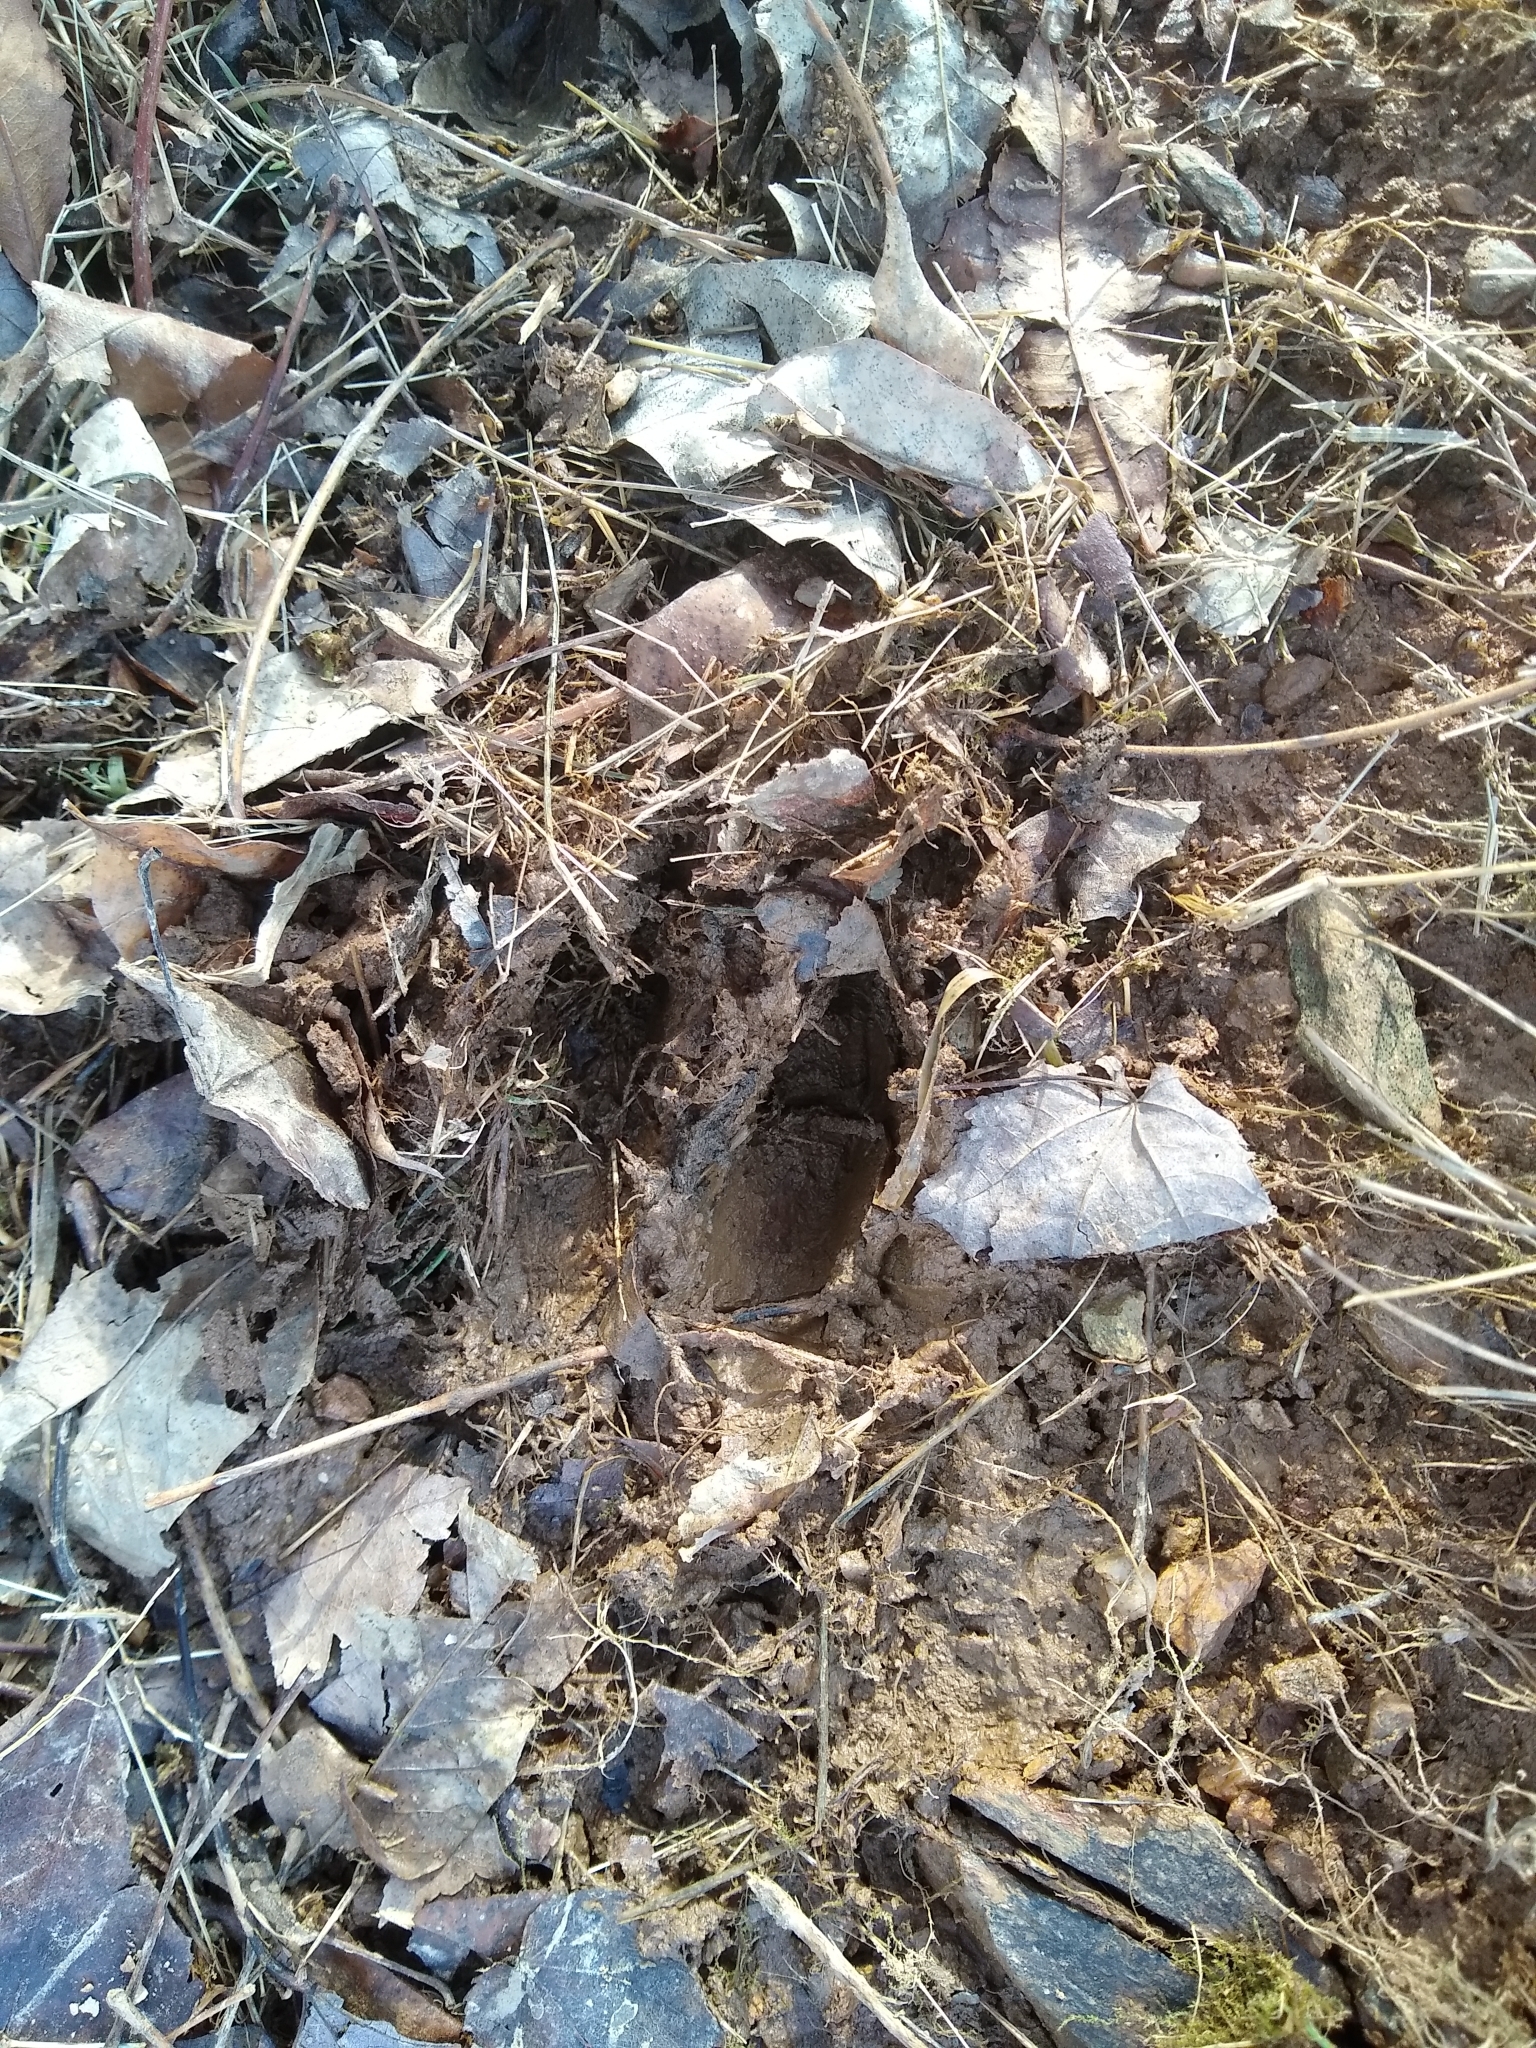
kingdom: Animalia
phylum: Chordata
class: Mammalia
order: Artiodactyla
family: Cervidae
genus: Odocoileus
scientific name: Odocoileus virginianus
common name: White-tailed deer
